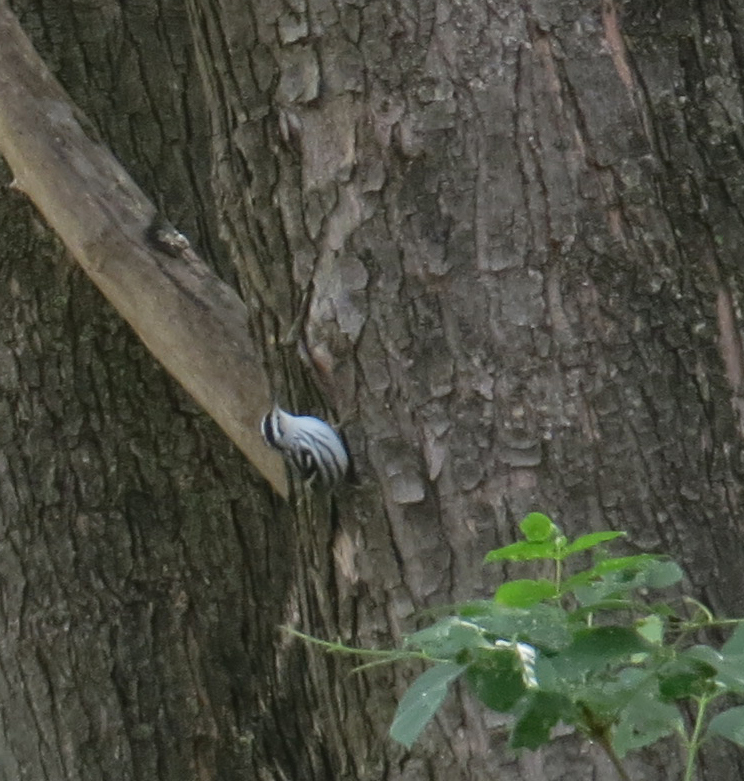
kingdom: Animalia
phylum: Chordata
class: Aves
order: Passeriformes
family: Parulidae
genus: Mniotilta
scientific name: Mniotilta varia
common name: Black-and-white warbler
